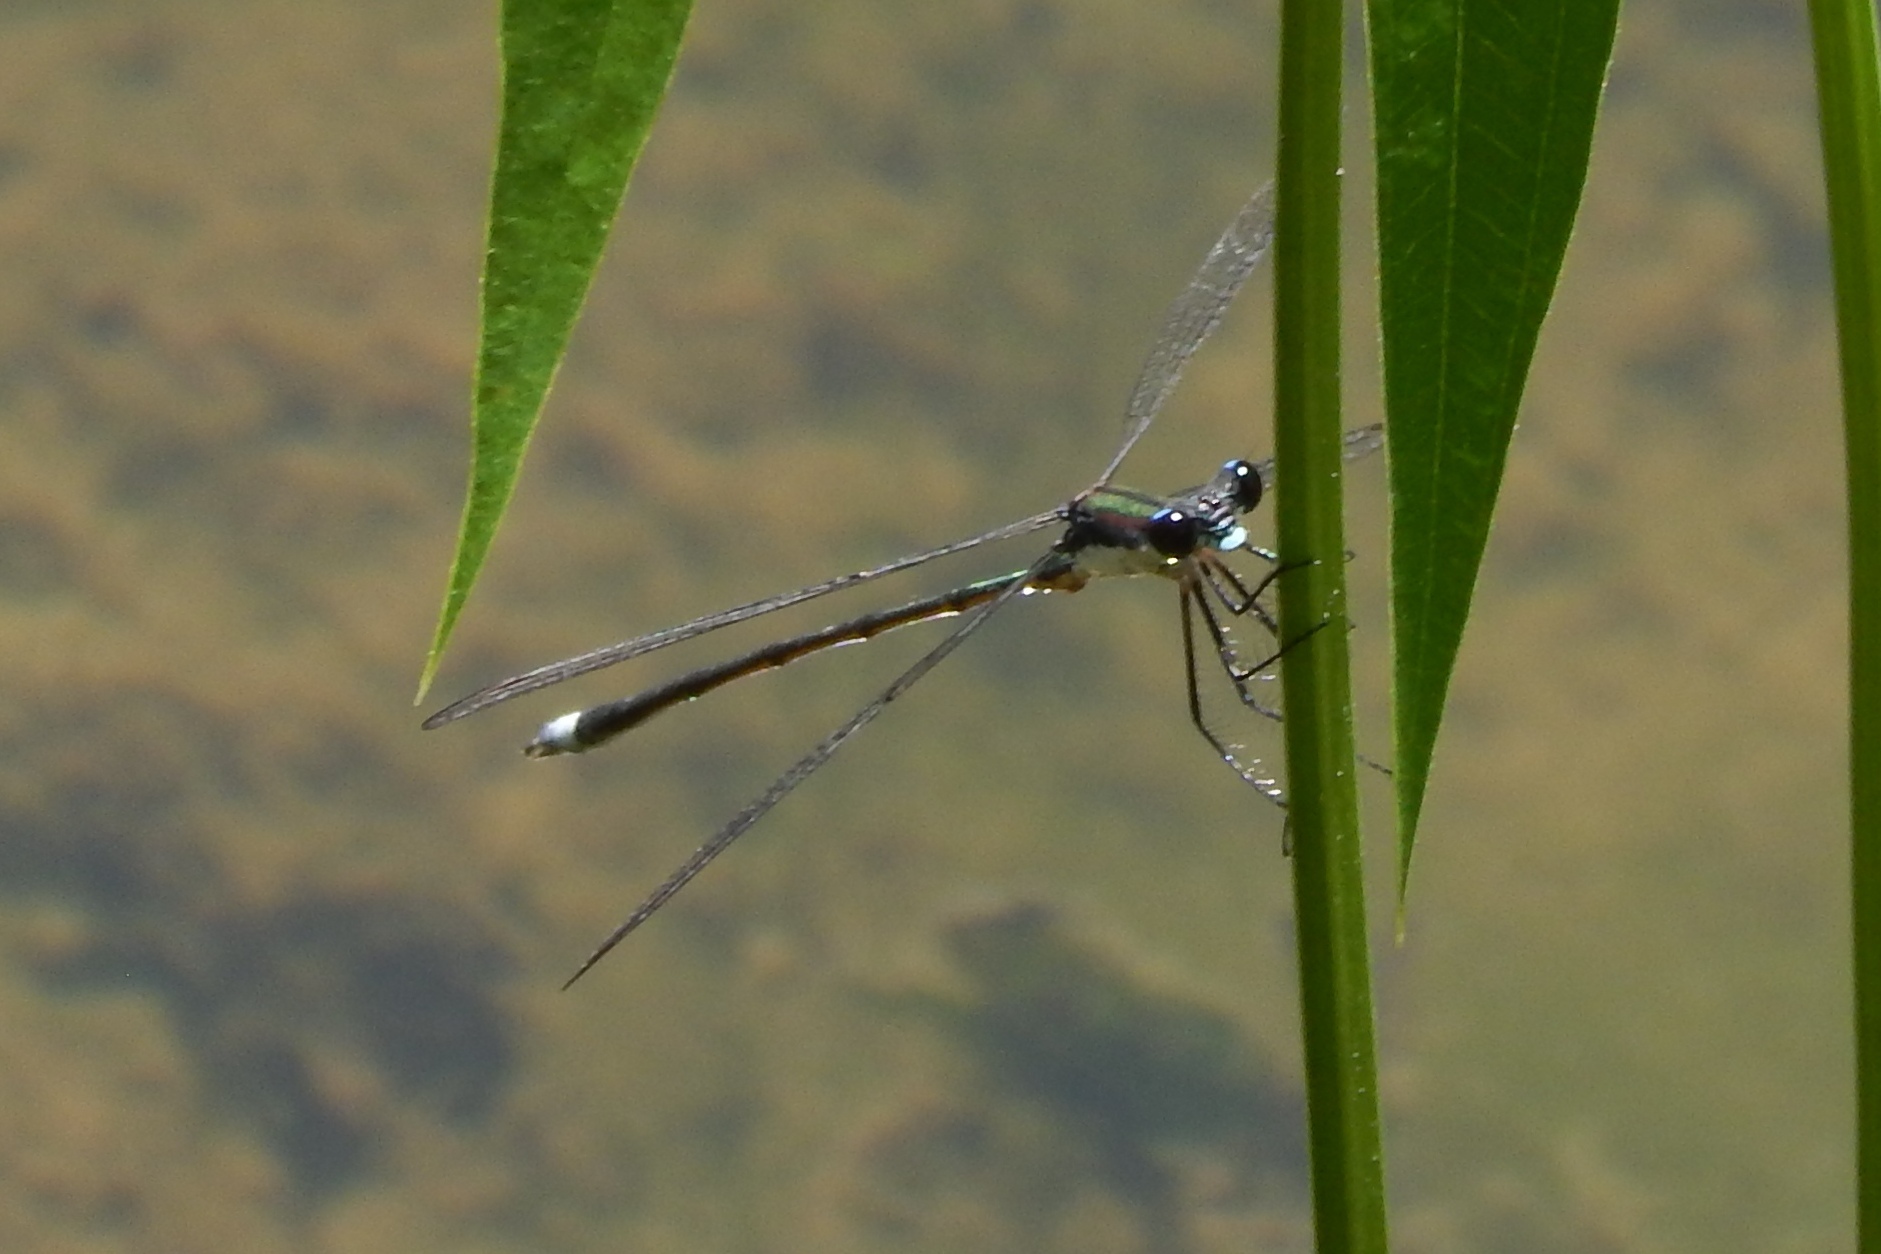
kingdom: Animalia
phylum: Arthropoda
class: Insecta
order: Odonata
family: Lestidae
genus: Lestes
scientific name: Lestes vigilax
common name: Swamp spreadwing
